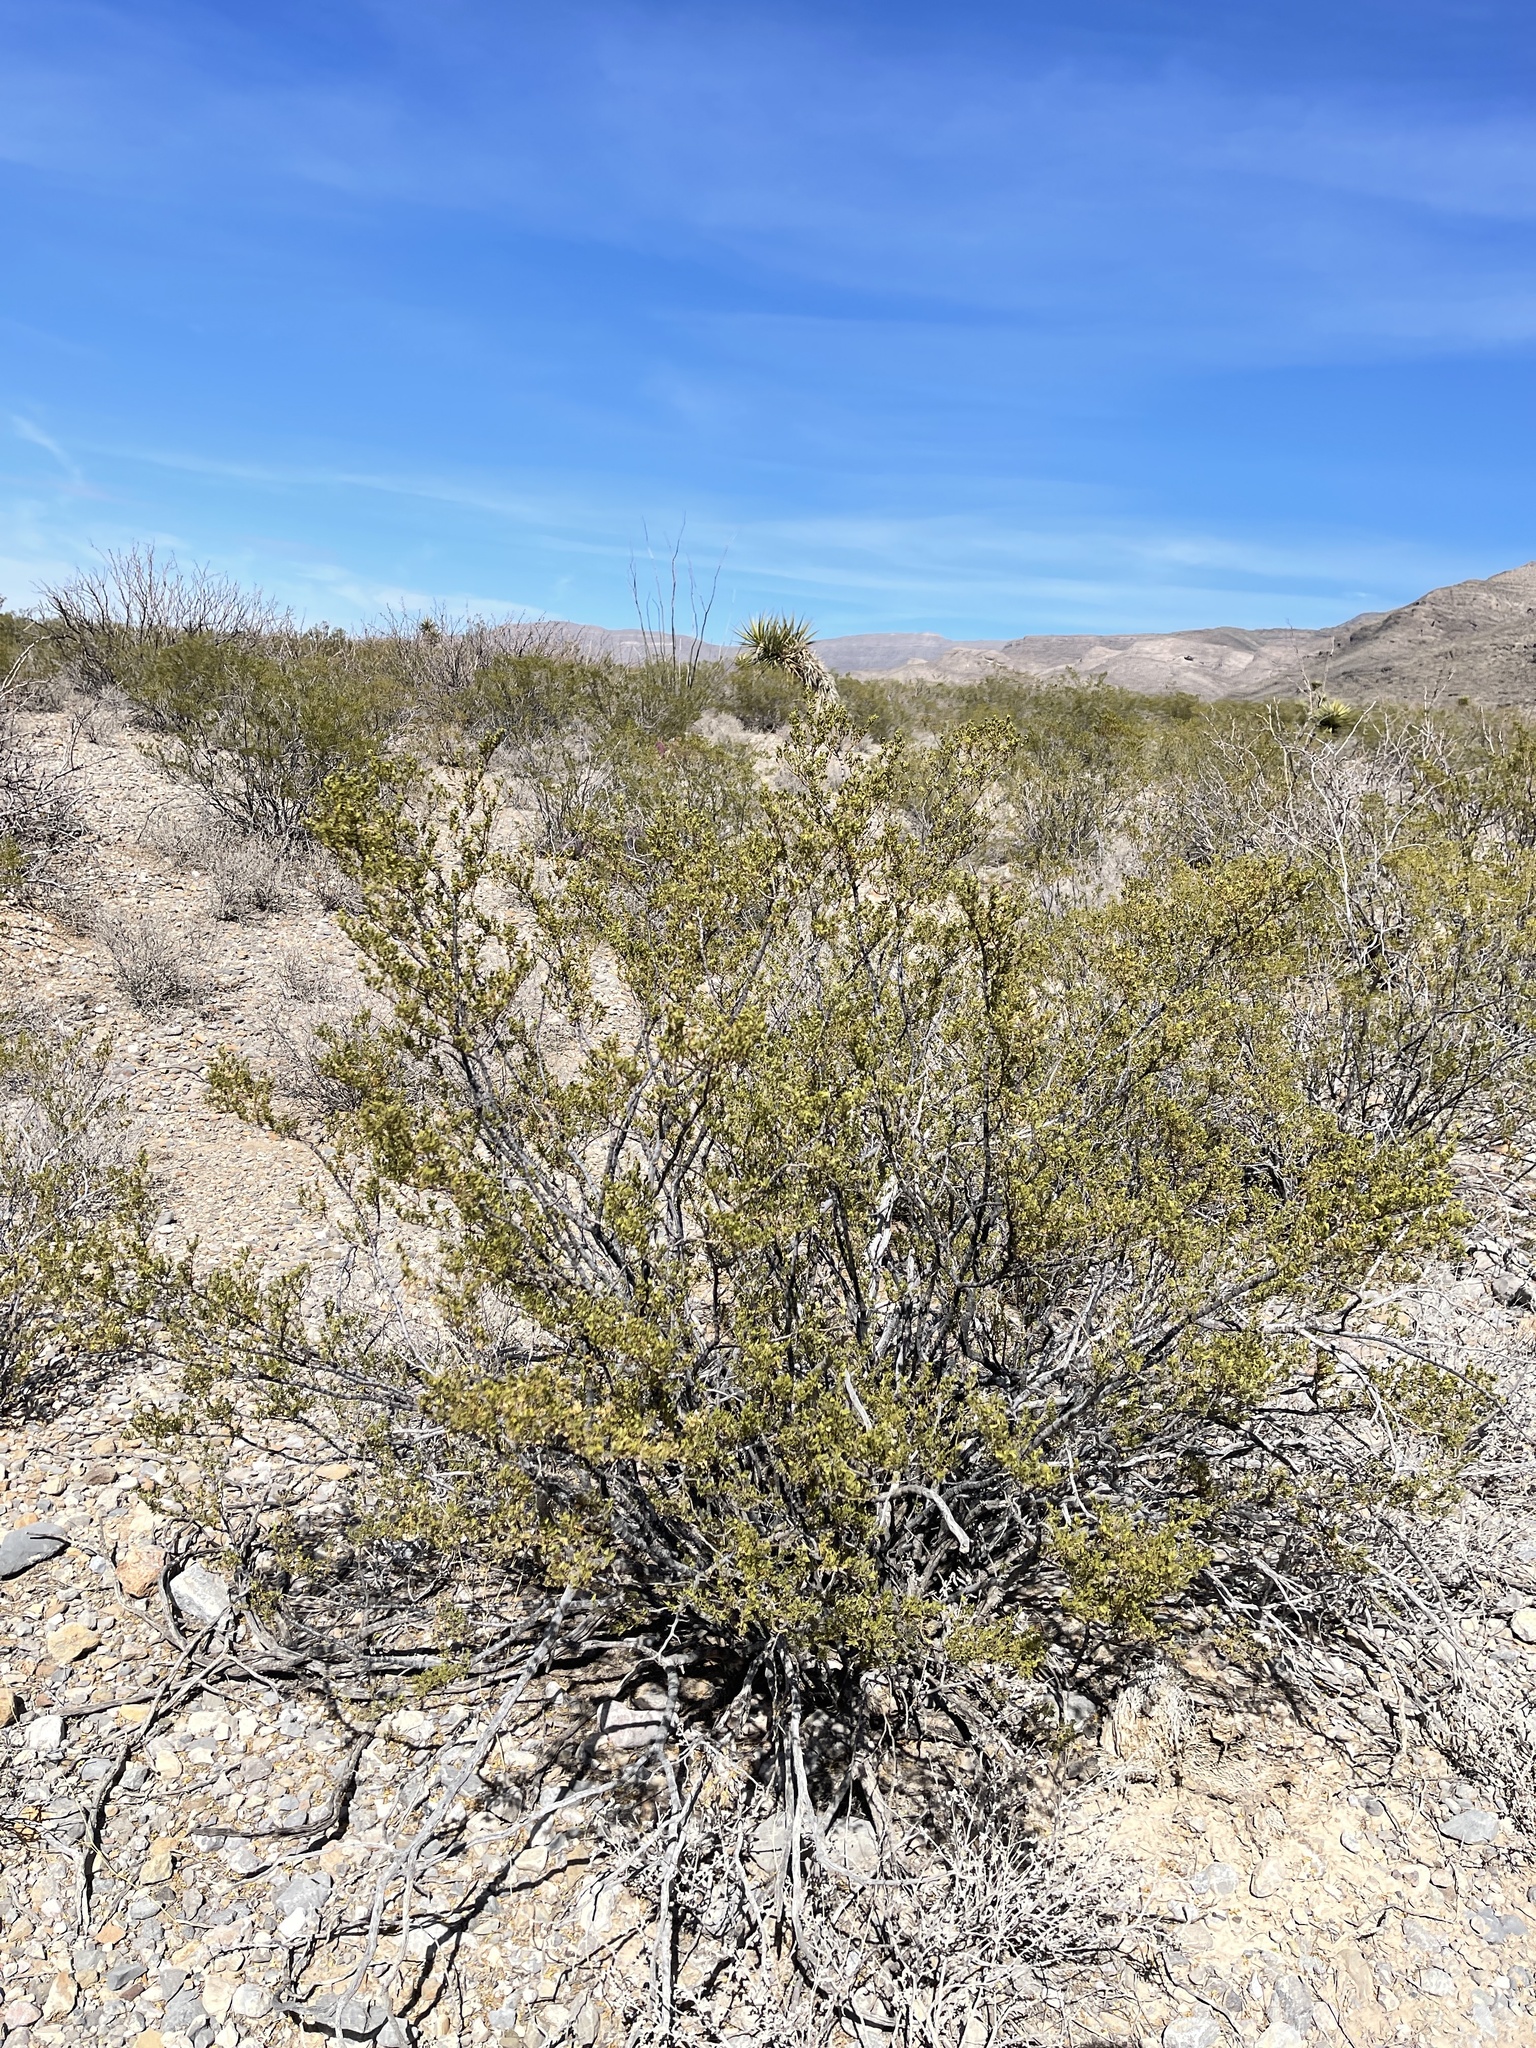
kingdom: Plantae
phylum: Tracheophyta
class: Magnoliopsida
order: Zygophyllales
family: Zygophyllaceae
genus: Larrea
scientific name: Larrea tridentata
